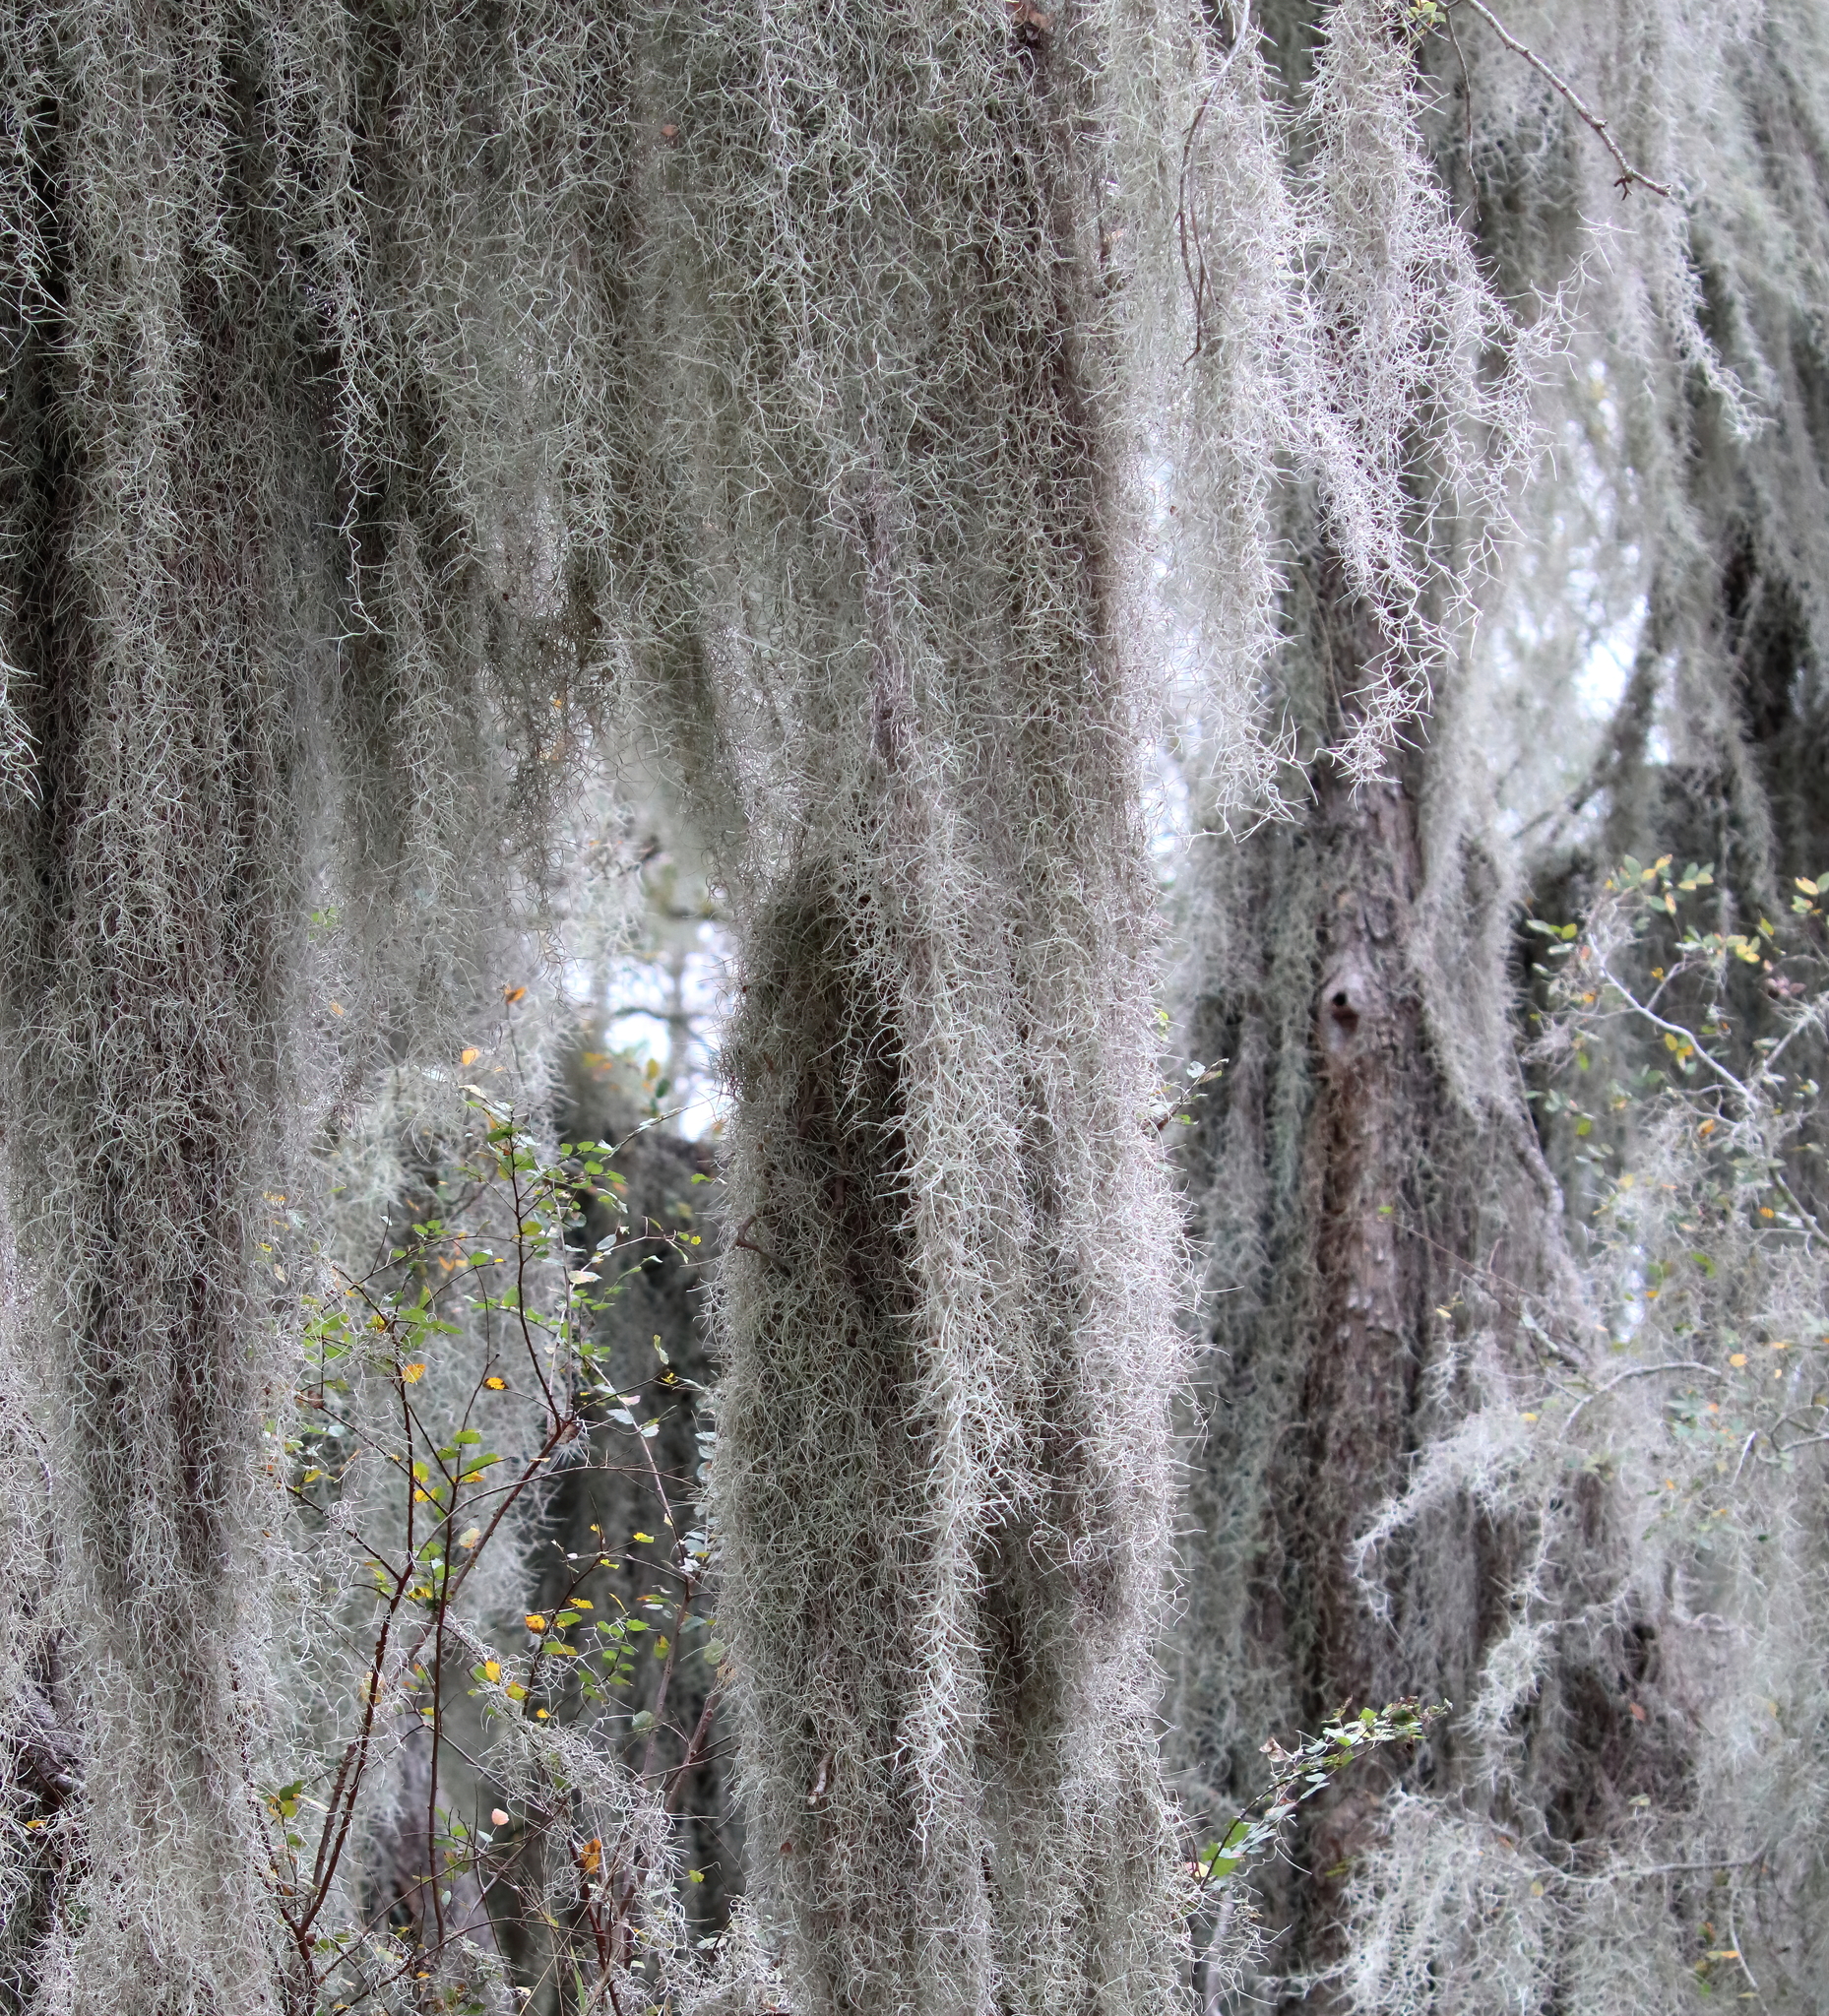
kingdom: Plantae
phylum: Tracheophyta
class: Liliopsida
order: Poales
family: Bromeliaceae
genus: Tillandsia
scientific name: Tillandsia usneoides
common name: Spanish moss
